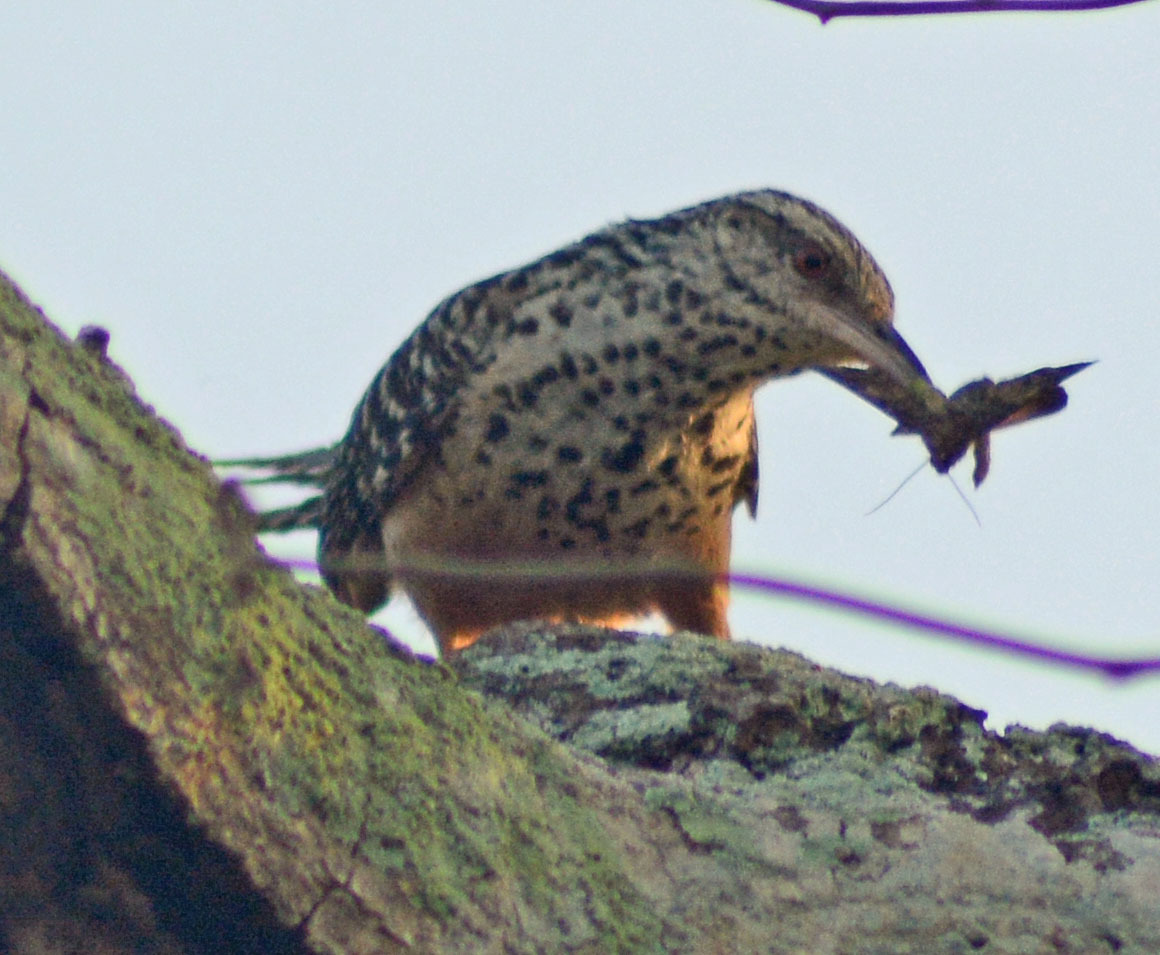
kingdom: Animalia
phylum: Chordata
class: Aves
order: Passeriformes
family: Troglodytidae
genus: Campylorhynchus
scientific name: Campylorhynchus zonatus
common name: Band-backed wren
